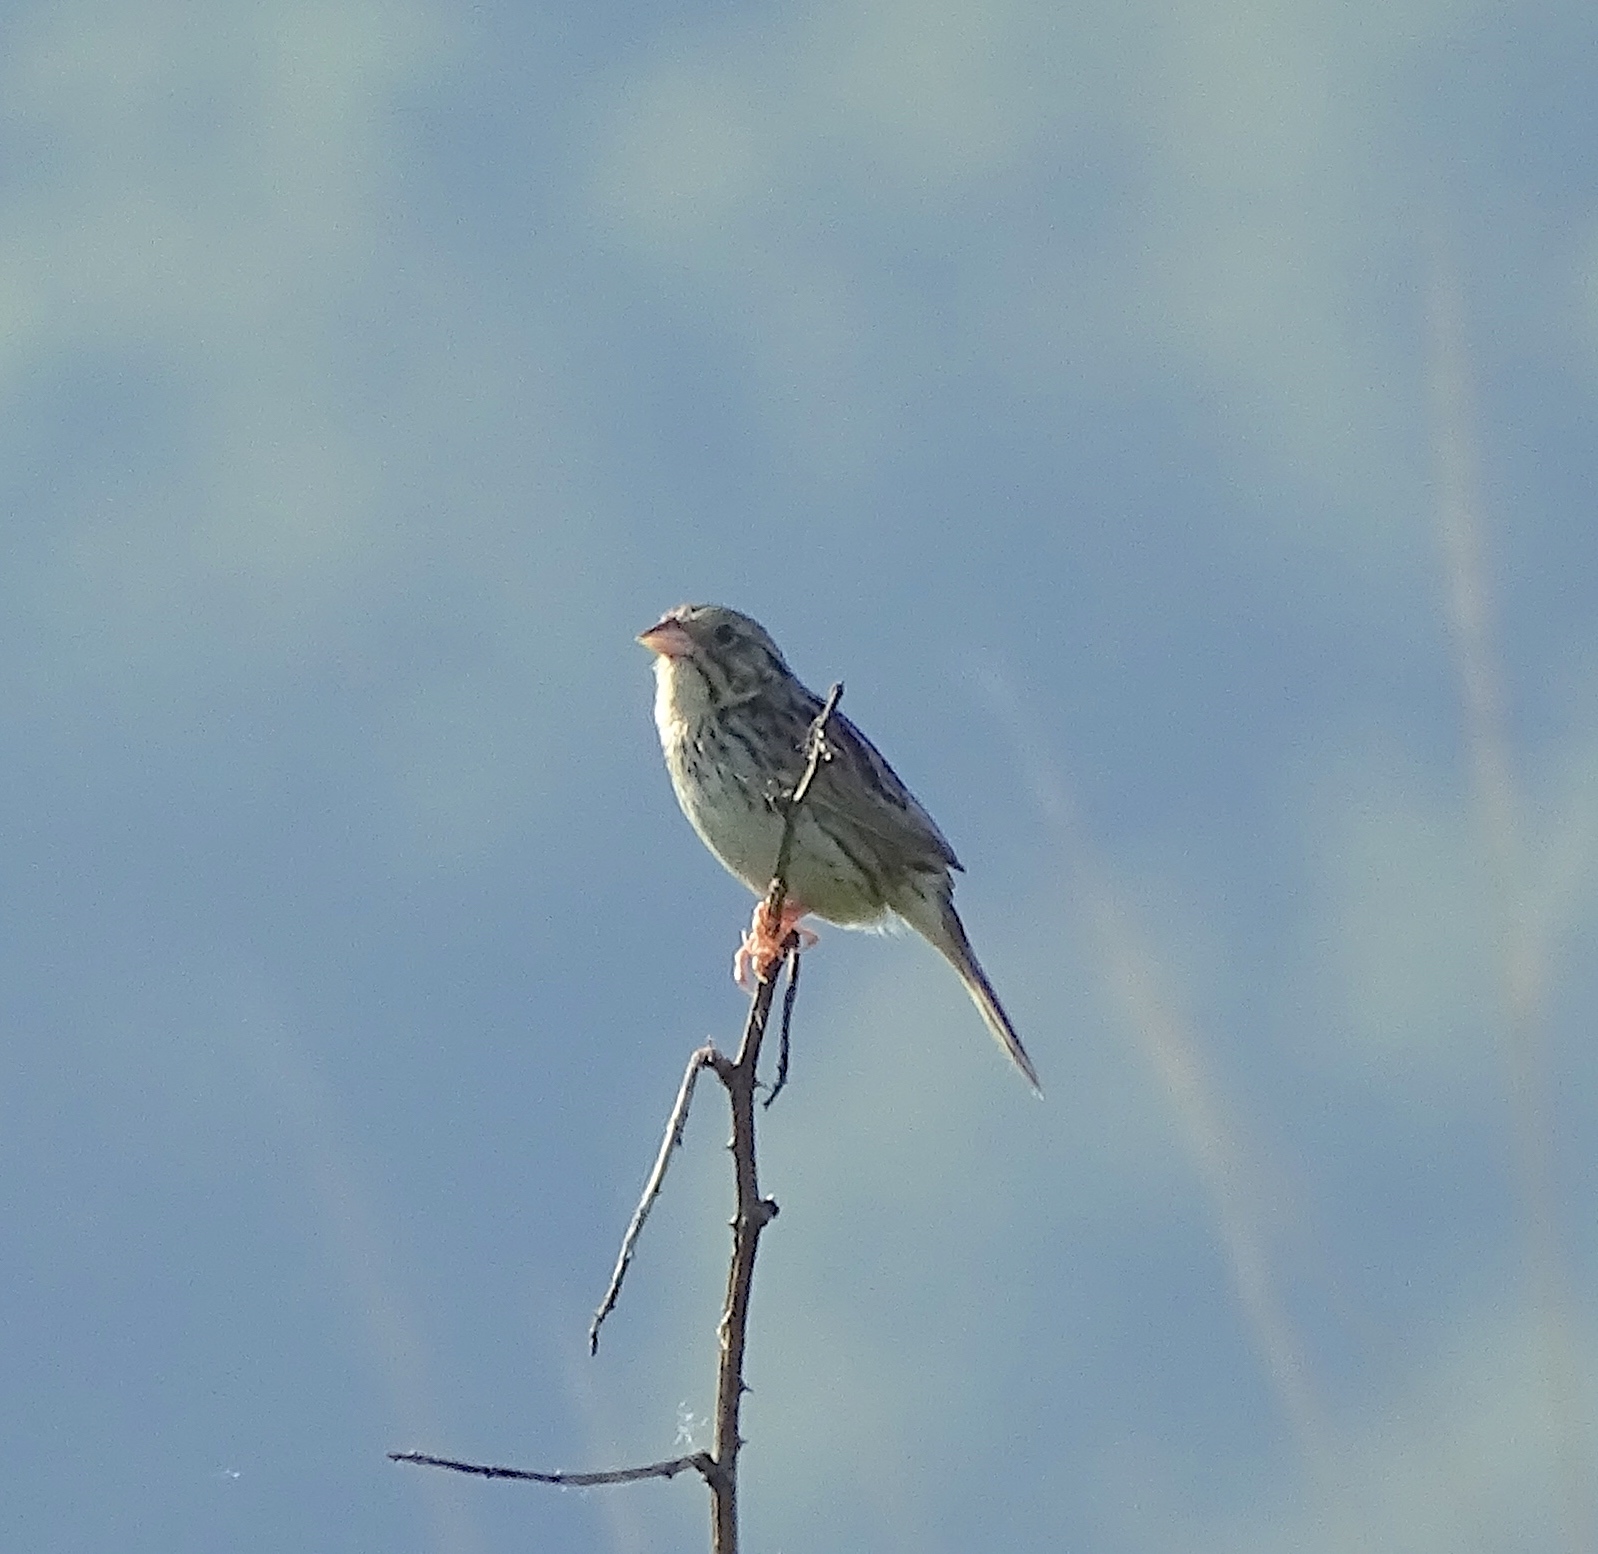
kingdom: Animalia
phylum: Chordata
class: Aves
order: Passeriformes
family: Passerellidae
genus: Centronyx
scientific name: Centronyx henslowii
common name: Henslow's sparrow
